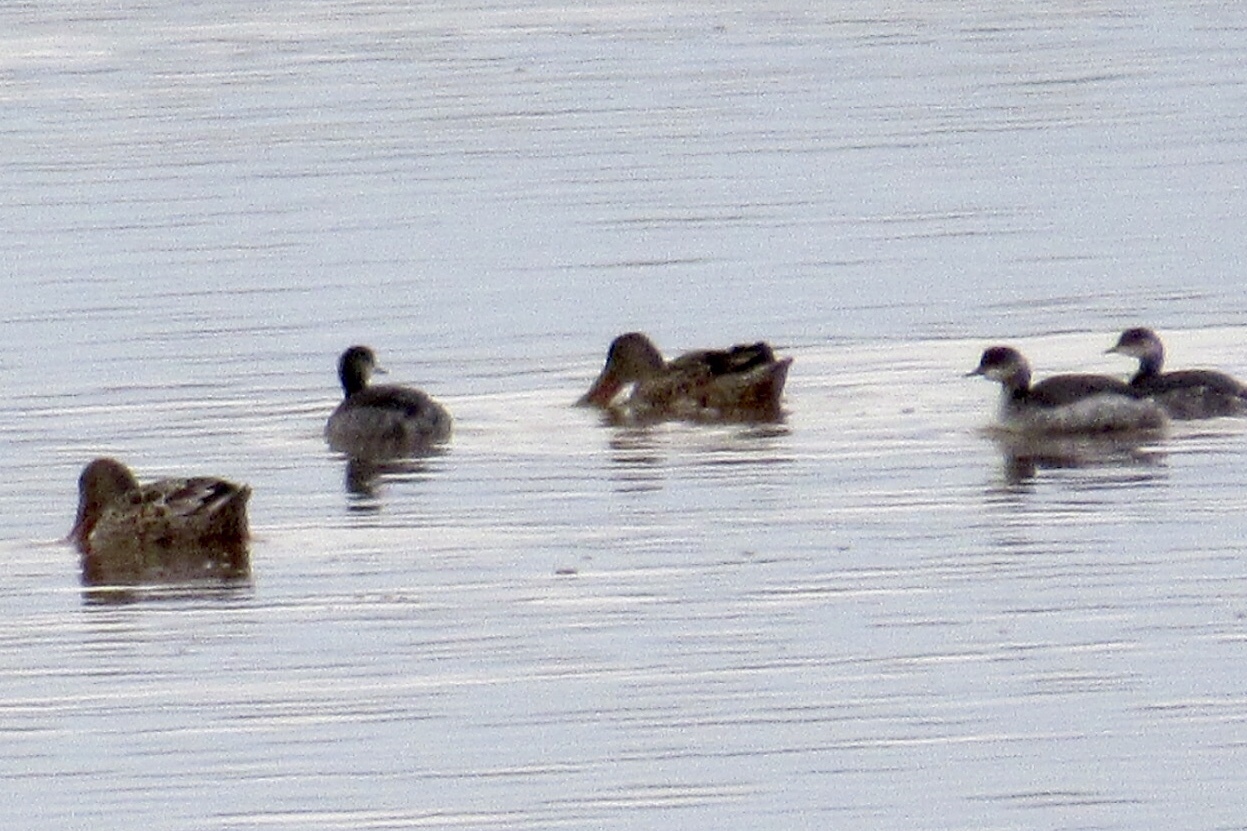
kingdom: Animalia
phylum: Chordata
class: Aves
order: Anseriformes
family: Anatidae
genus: Spatula
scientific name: Spatula clypeata
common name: Northern shoveler
